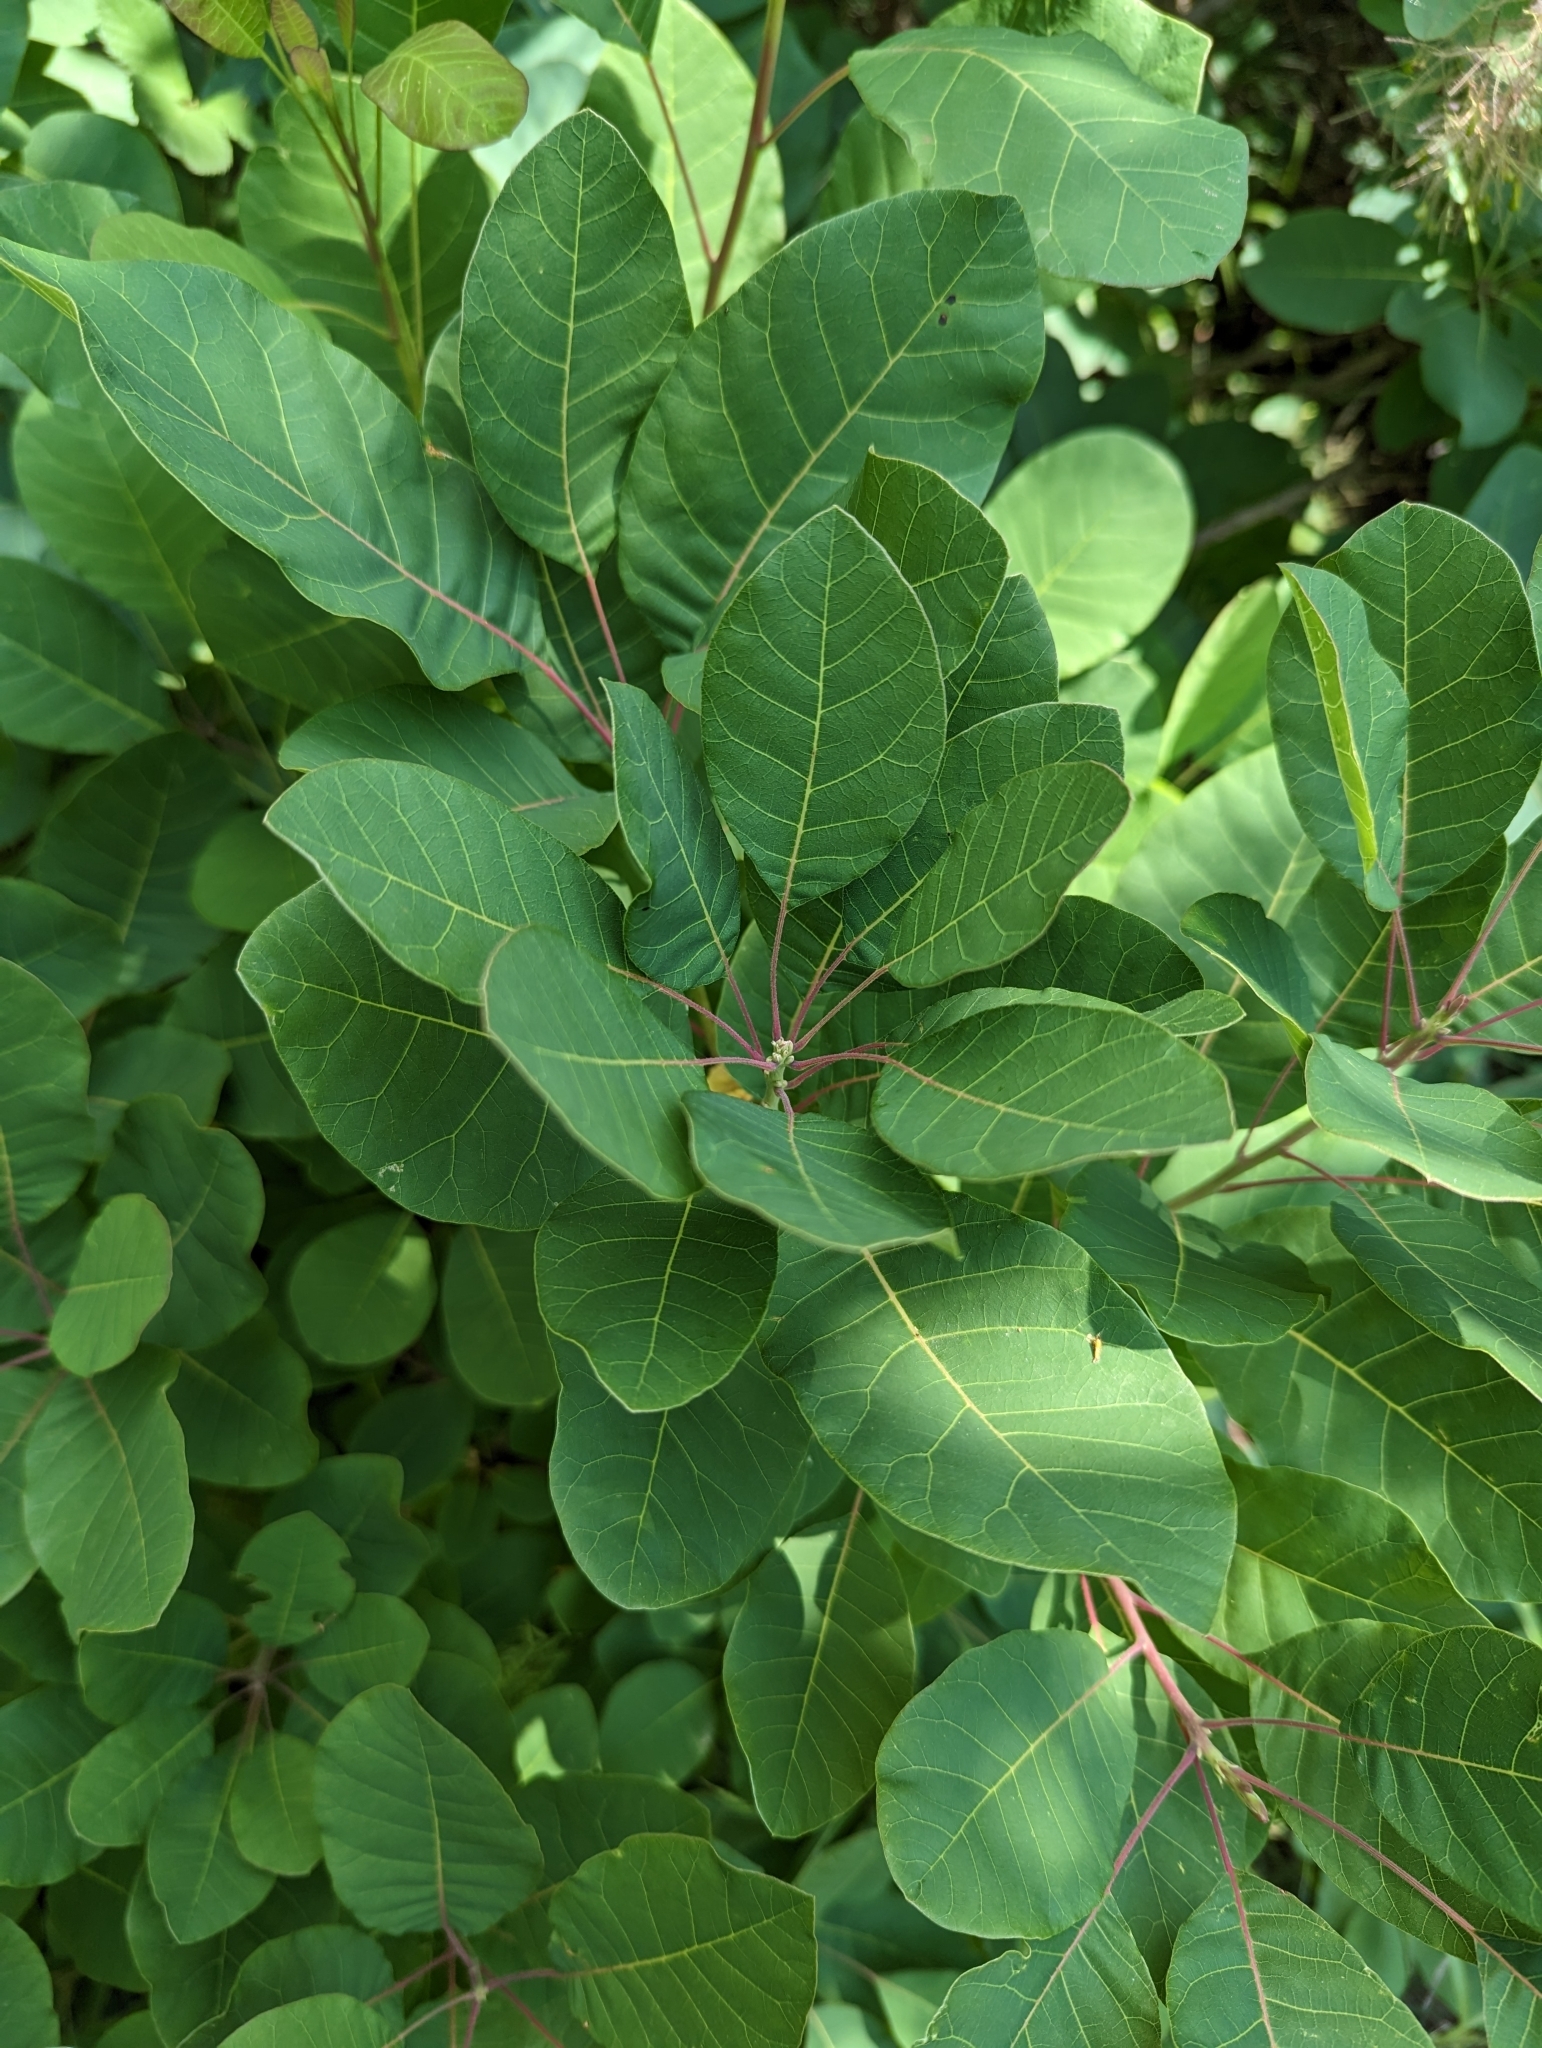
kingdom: Plantae
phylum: Tracheophyta
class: Magnoliopsida
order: Sapindales
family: Anacardiaceae
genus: Cotinus
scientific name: Cotinus coggygria
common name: Smoke-tree
